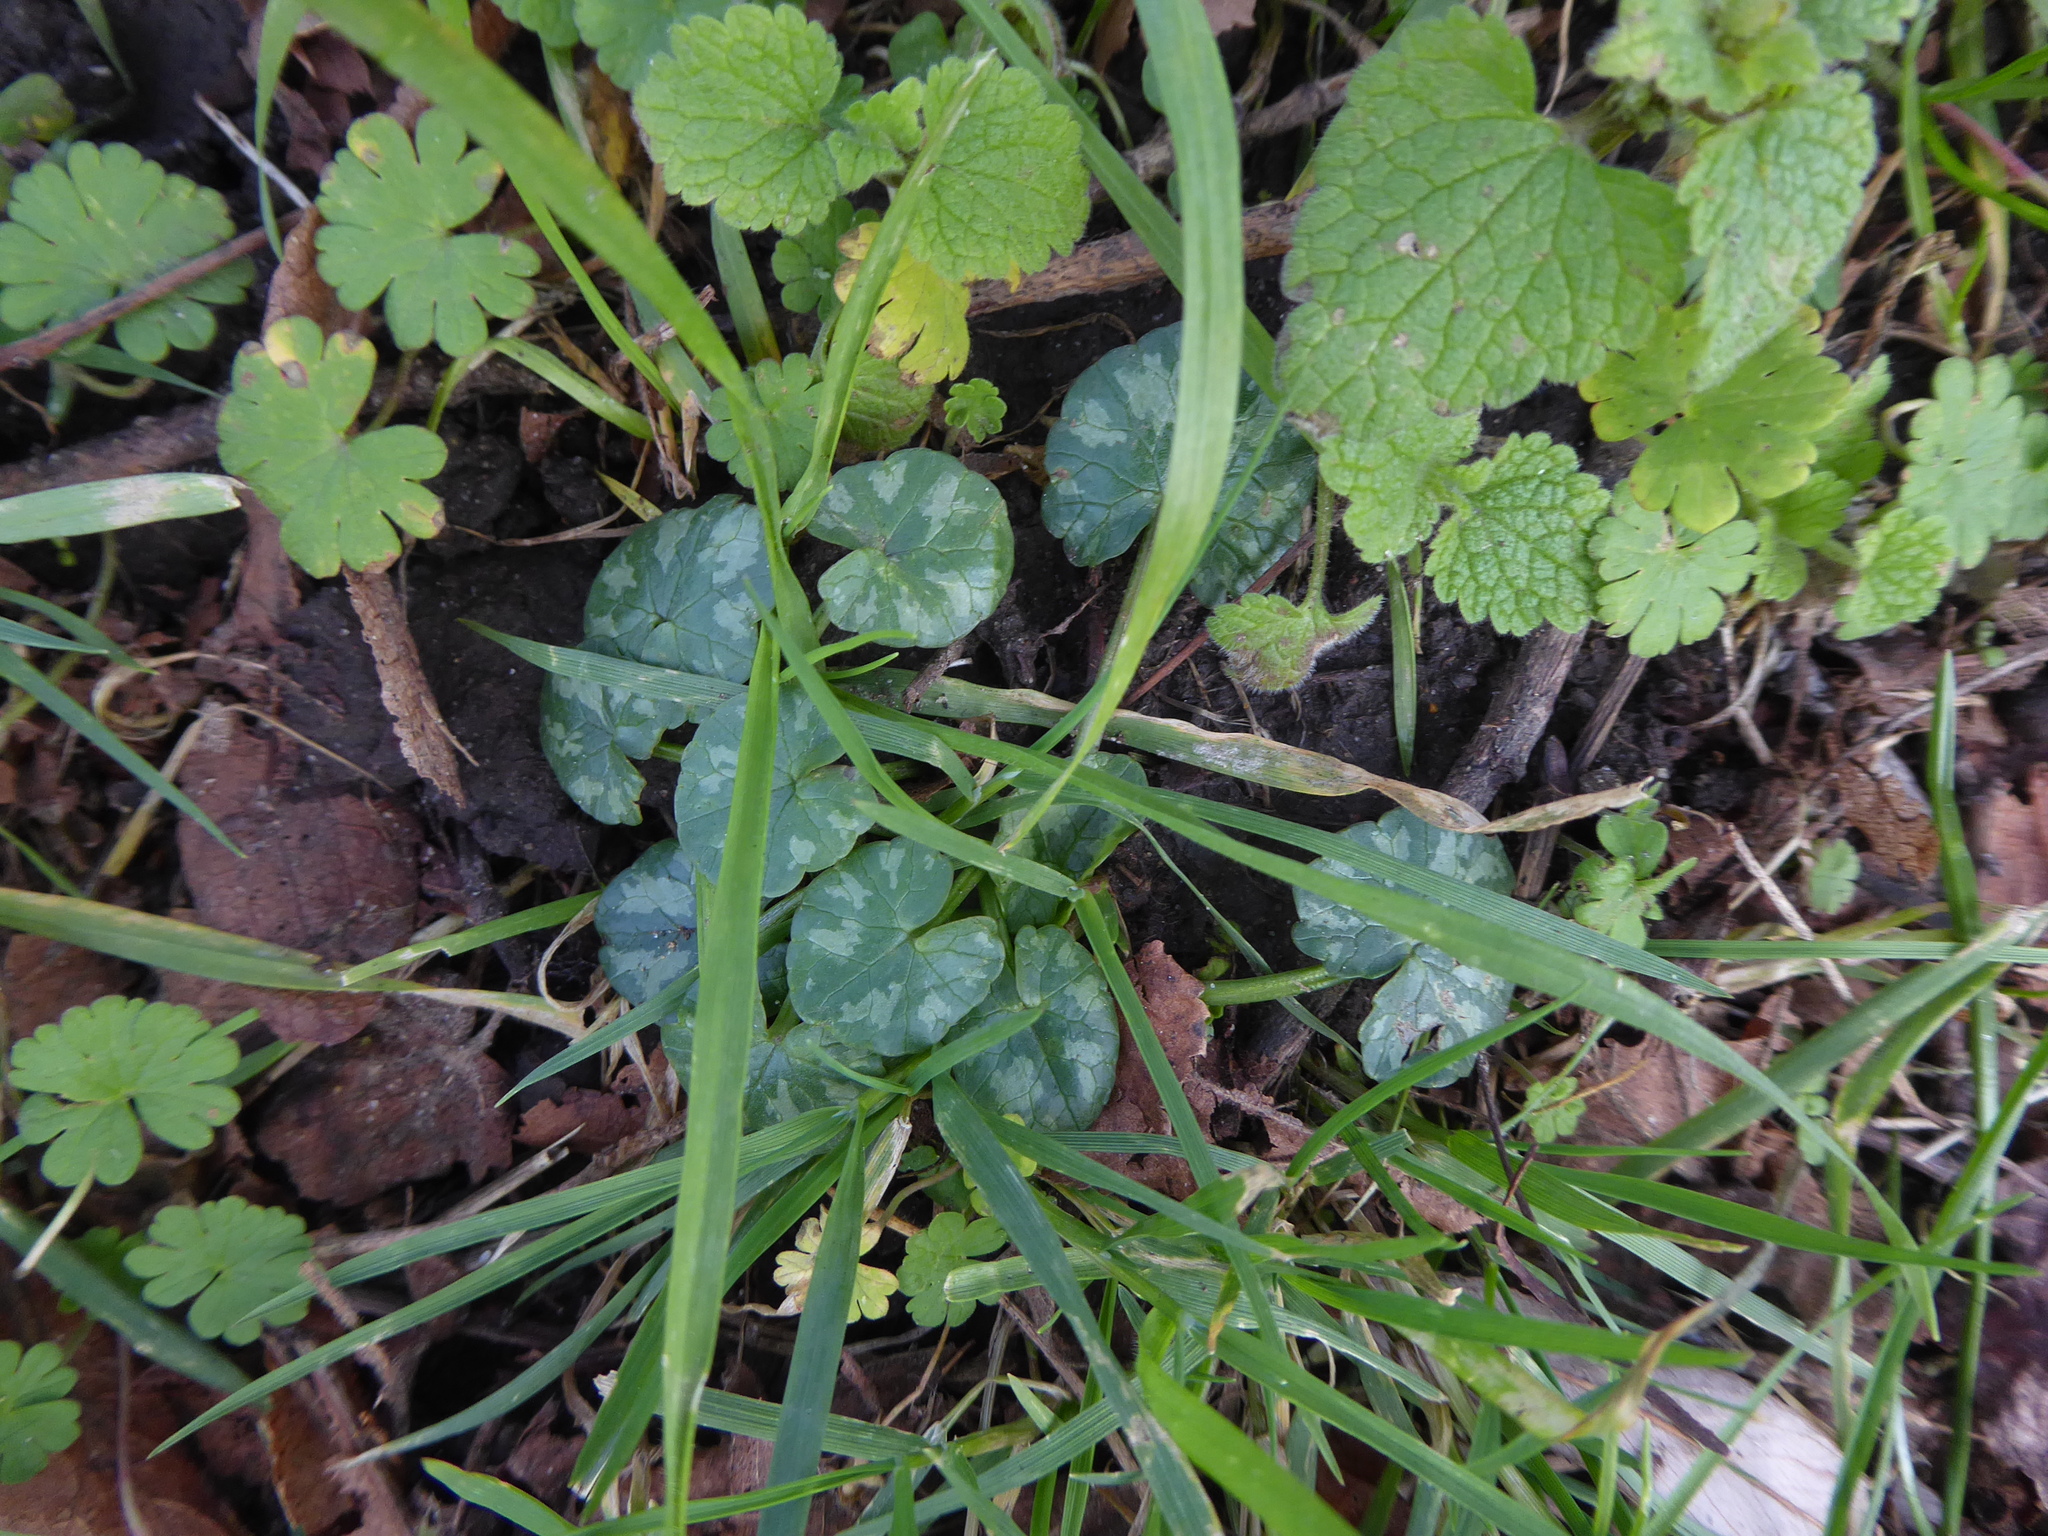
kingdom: Plantae
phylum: Tracheophyta
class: Magnoliopsida
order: Ranunculales
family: Ranunculaceae
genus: Ficaria
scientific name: Ficaria verna
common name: Lesser celandine
